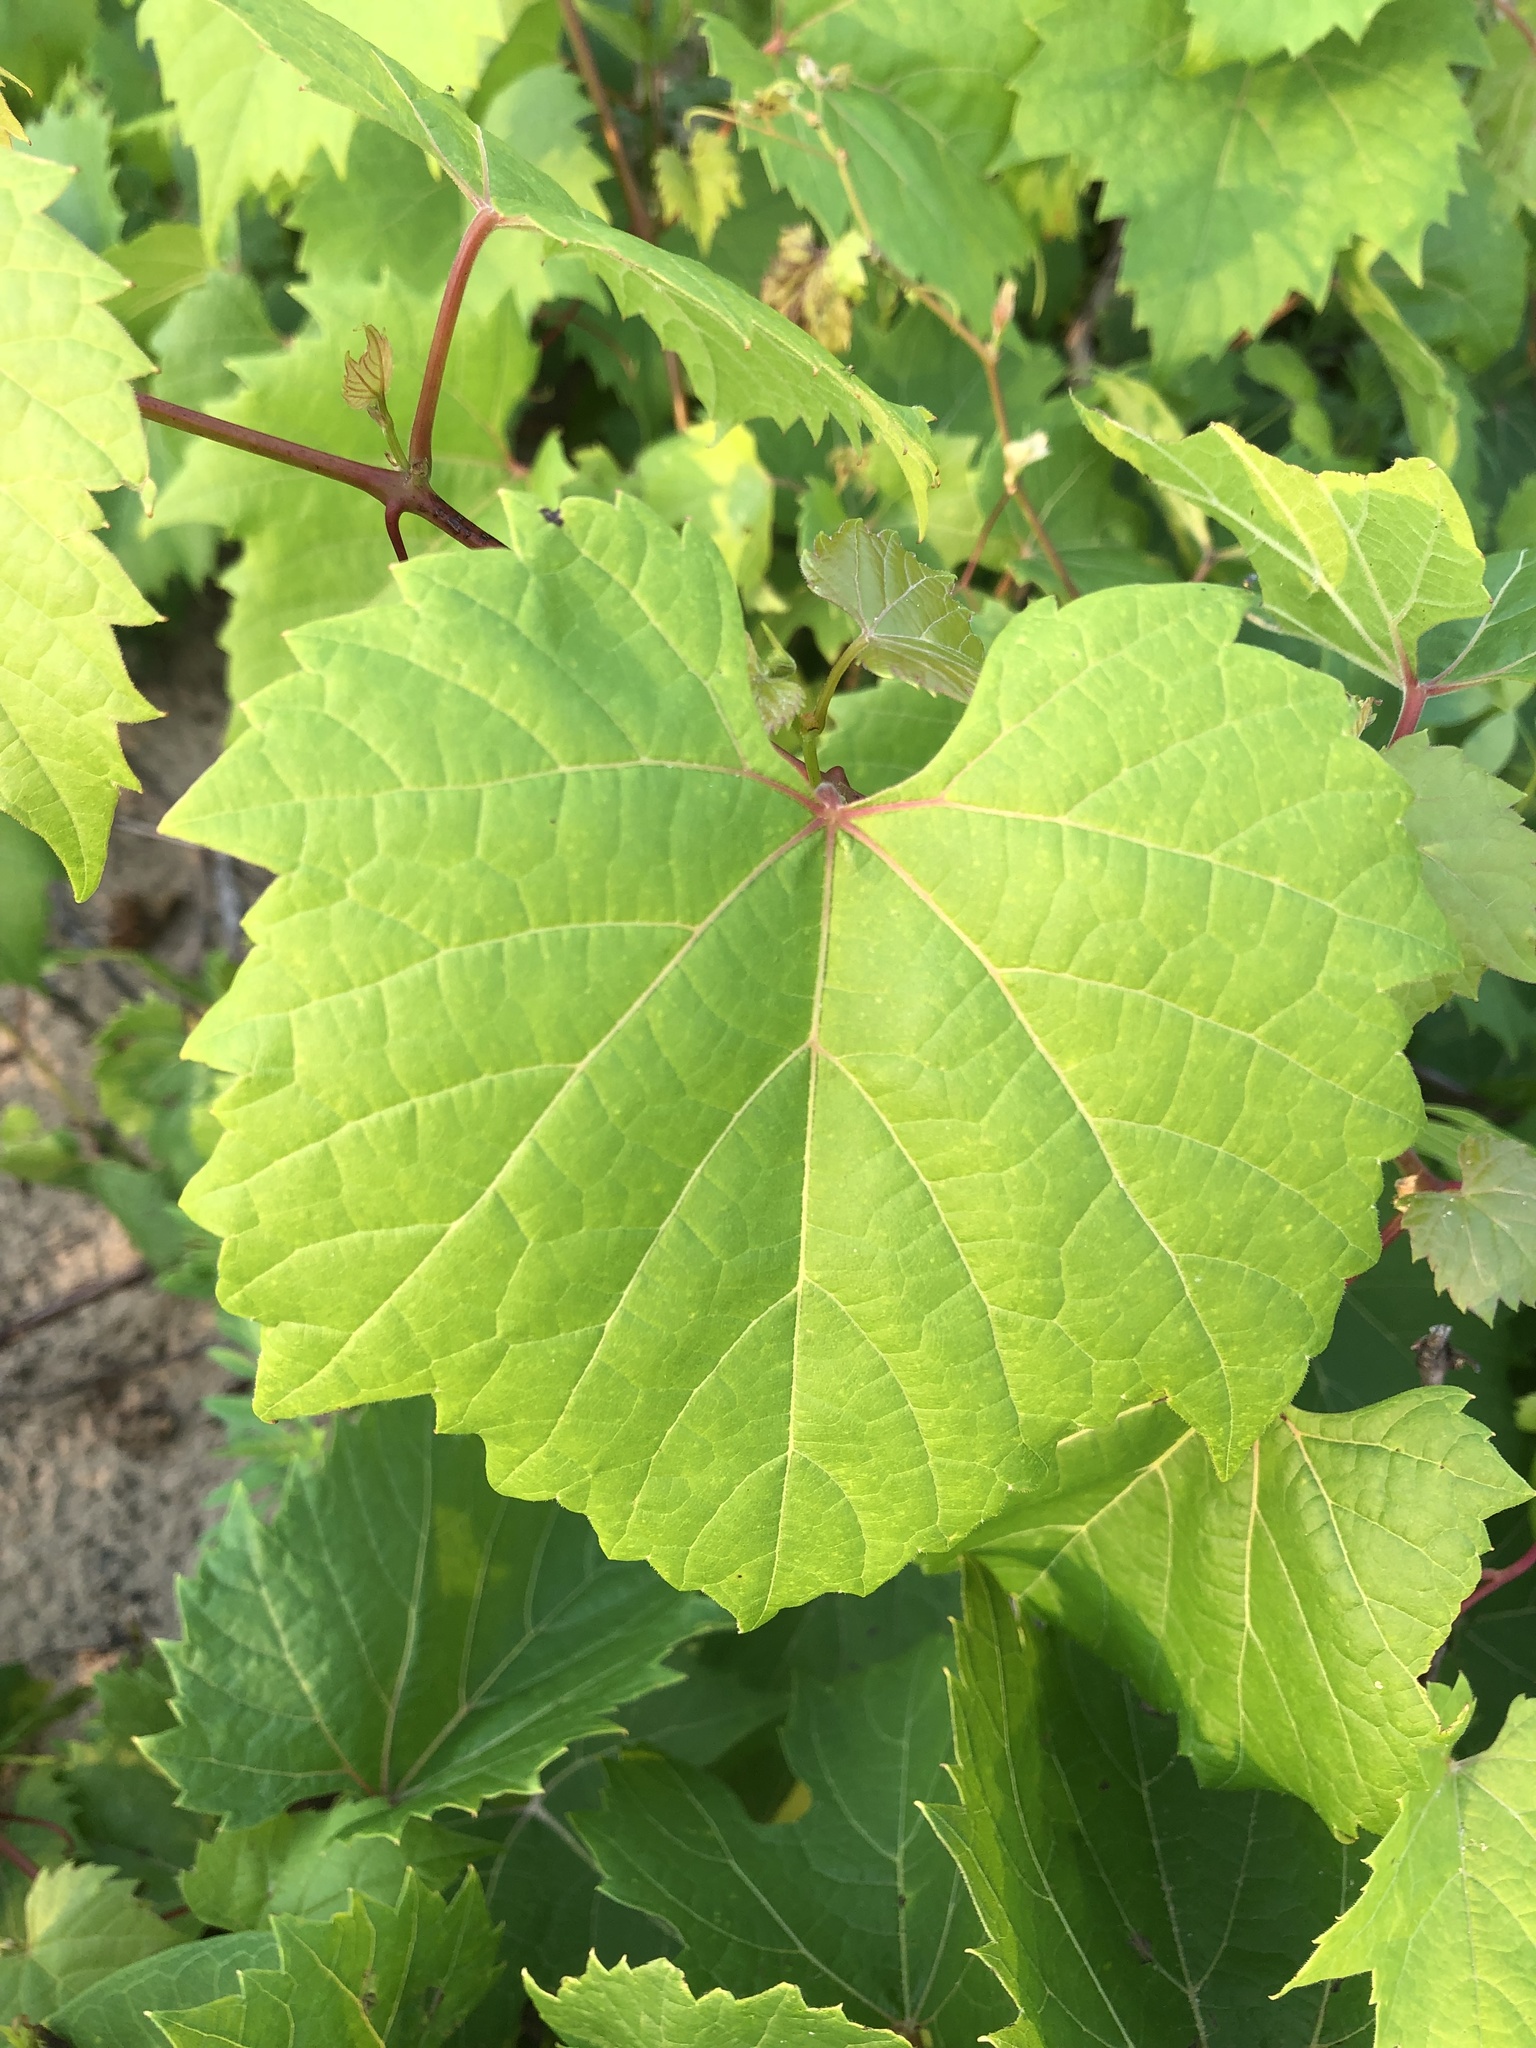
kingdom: Plantae
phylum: Tracheophyta
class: Magnoliopsida
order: Vitales
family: Vitaceae
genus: Vitis
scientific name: Vitis riparia
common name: Frost grape
